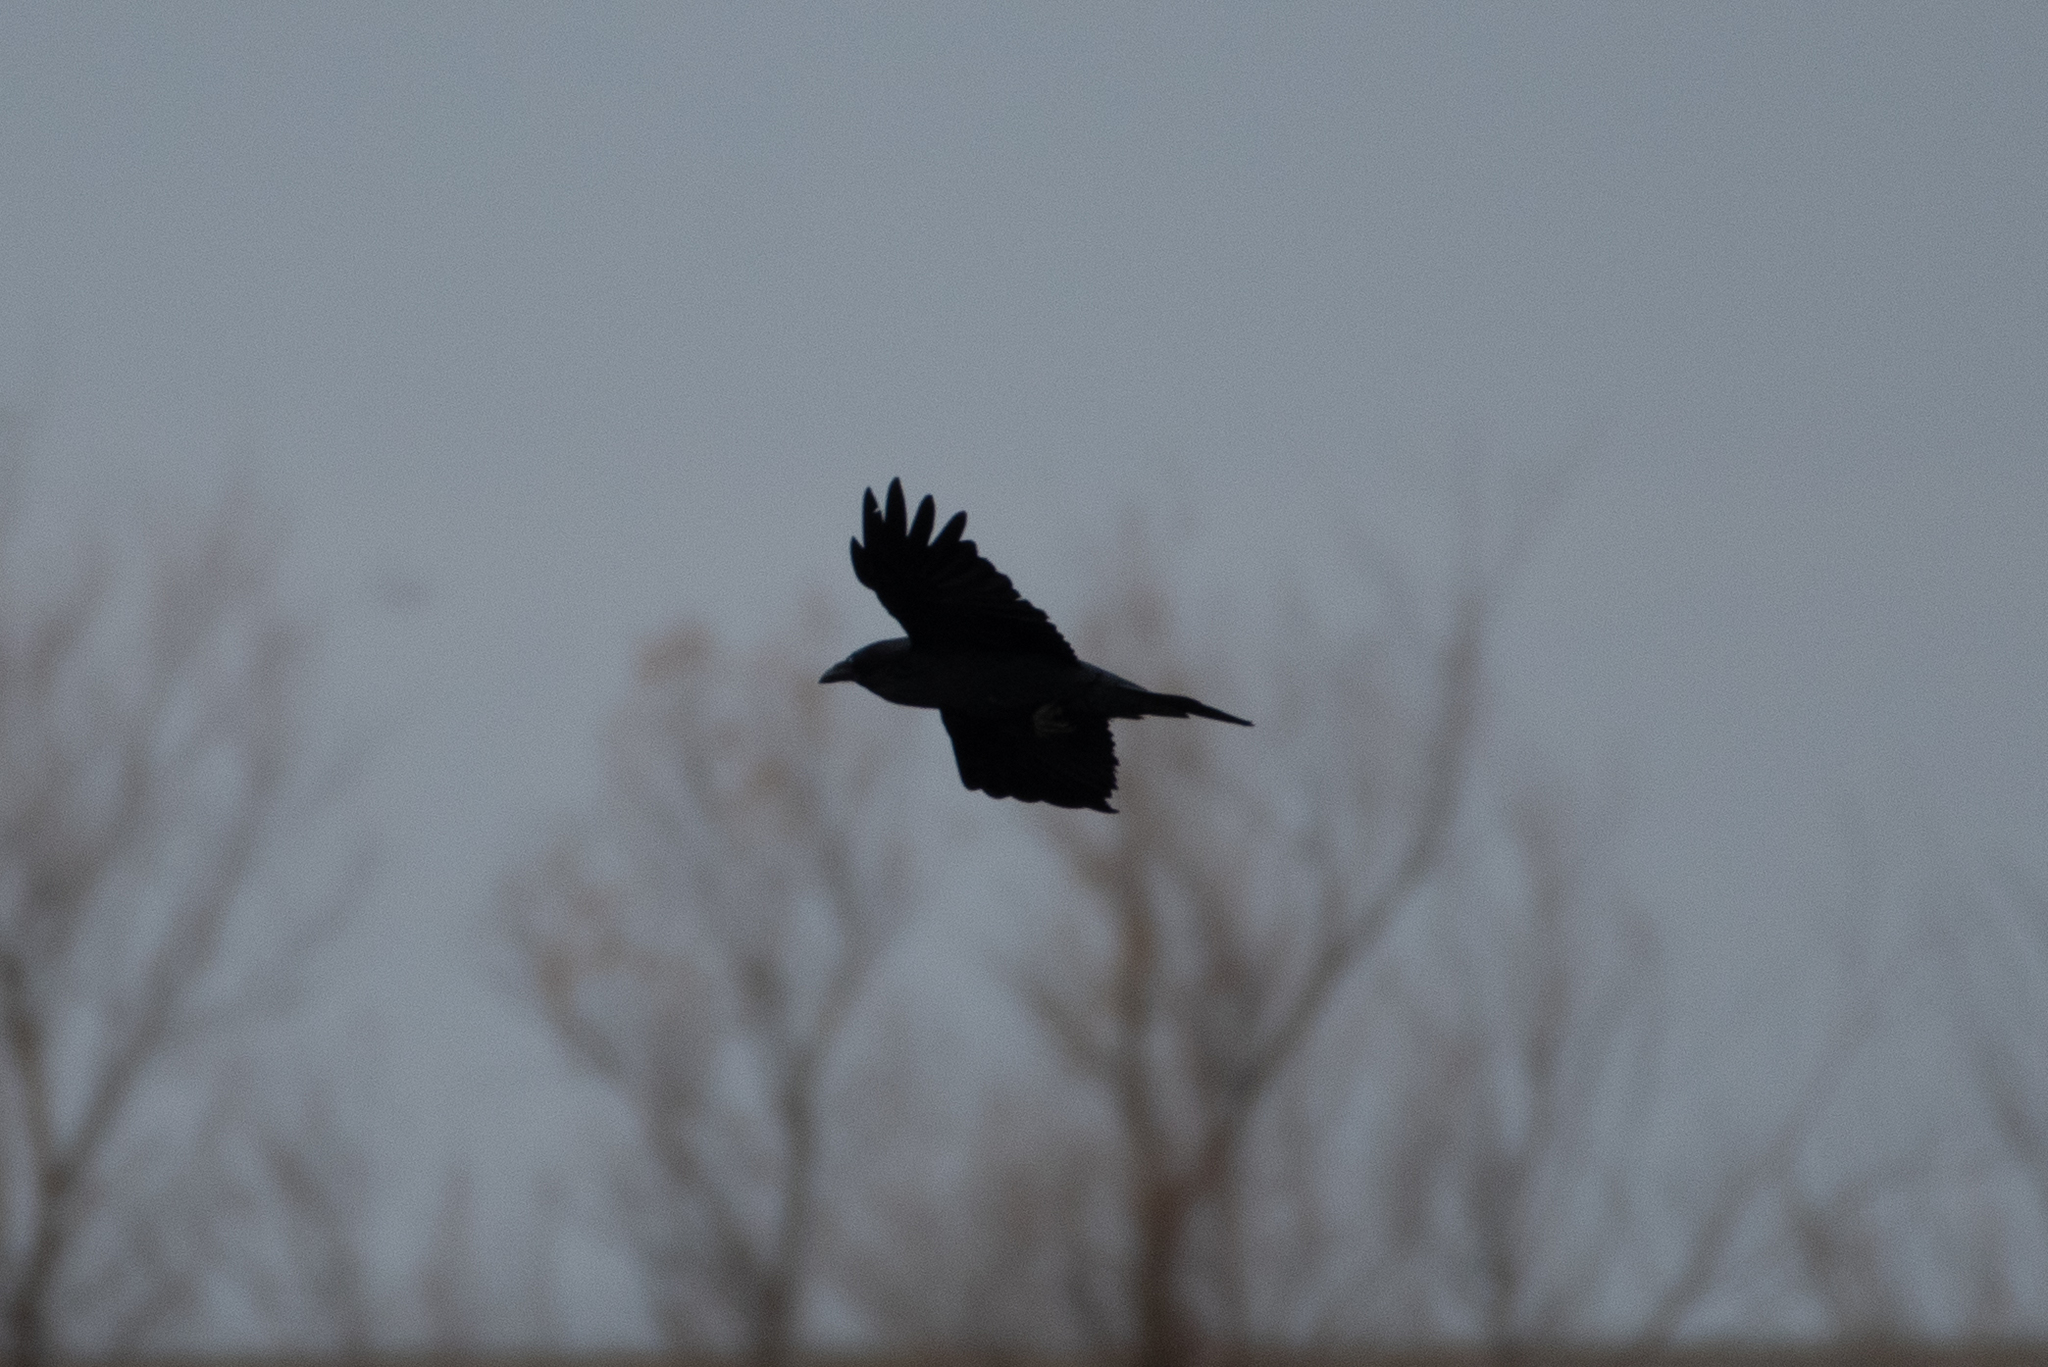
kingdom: Animalia
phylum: Chordata
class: Aves
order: Passeriformes
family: Corvidae
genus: Corvus
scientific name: Corvus corax
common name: Common raven
